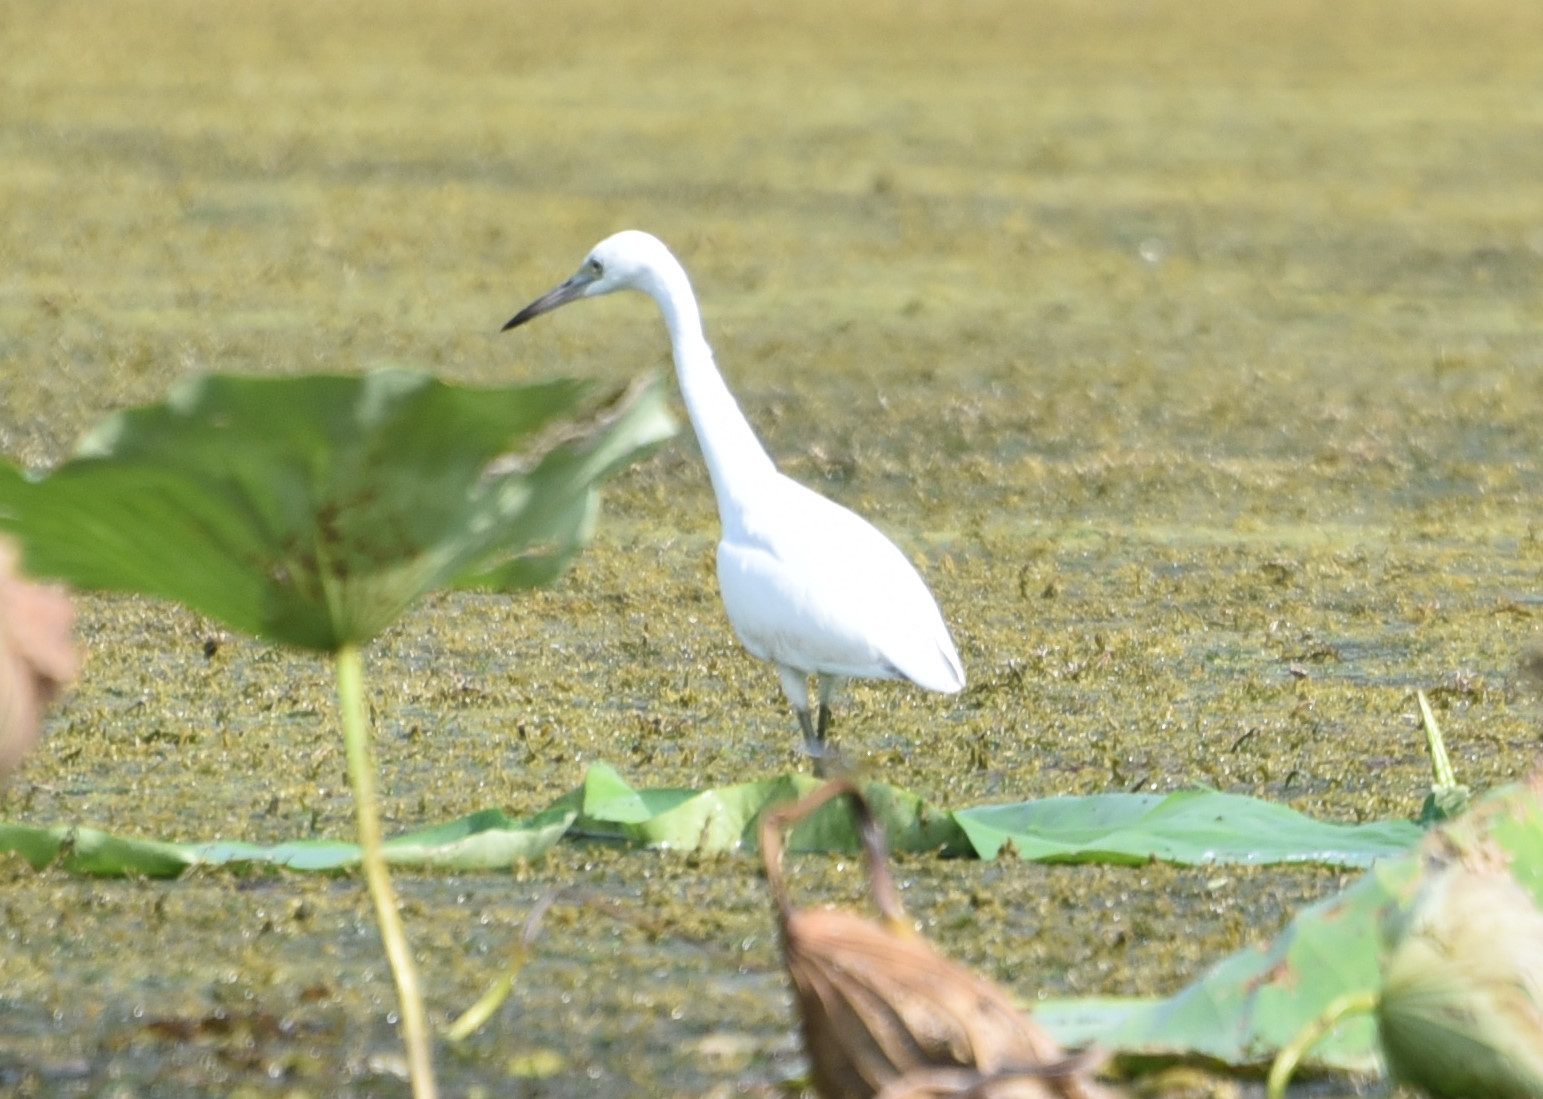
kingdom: Animalia
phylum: Chordata
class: Aves
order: Pelecaniformes
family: Ardeidae
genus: Egretta
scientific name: Egretta caerulea
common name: Little blue heron
